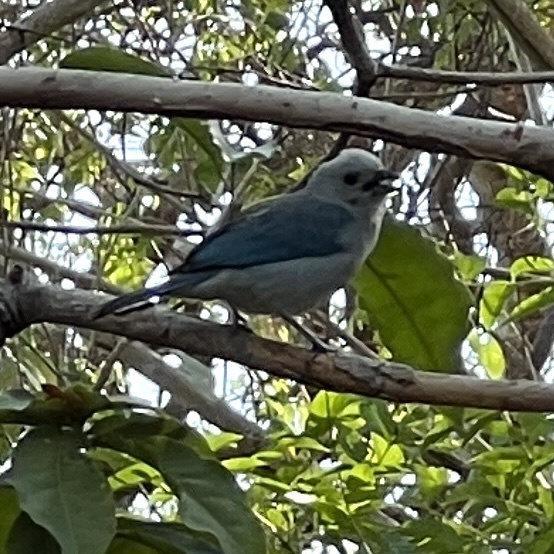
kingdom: Animalia
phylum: Chordata
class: Aves
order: Passeriformes
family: Thraupidae
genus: Thraupis
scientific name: Thraupis episcopus
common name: Blue-grey tanager
